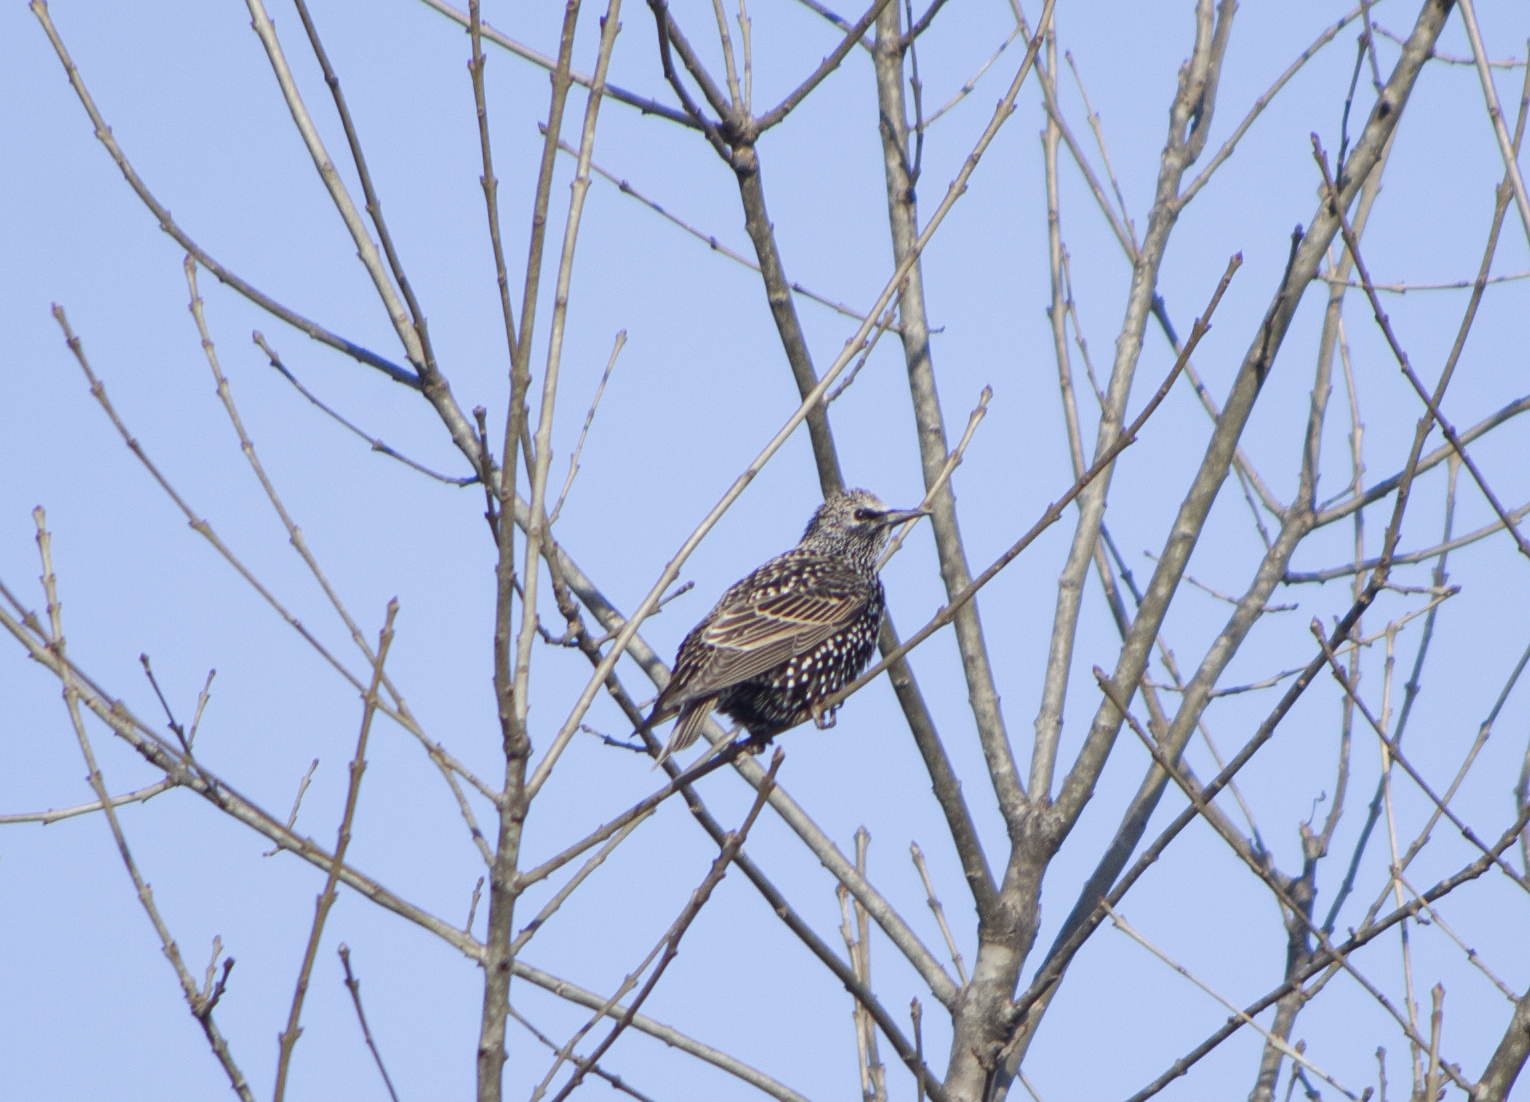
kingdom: Animalia
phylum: Chordata
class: Aves
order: Passeriformes
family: Sturnidae
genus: Sturnus
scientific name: Sturnus vulgaris
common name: Common starling
